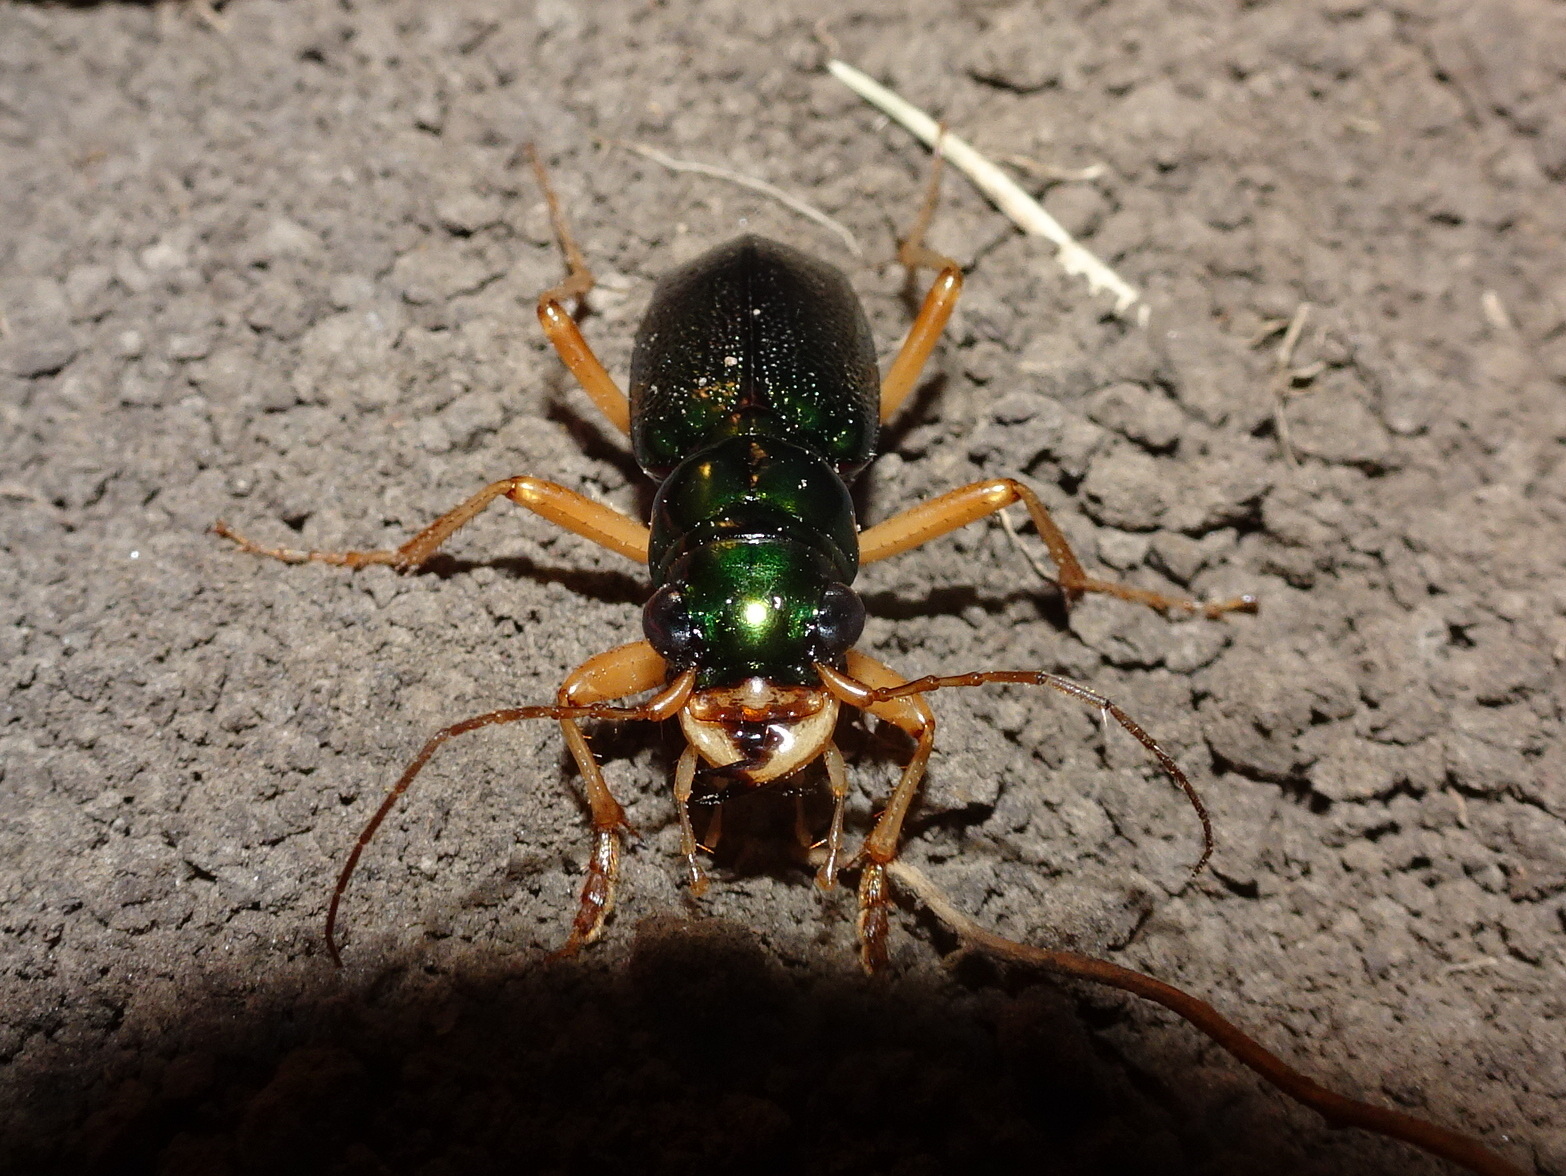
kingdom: Animalia
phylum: Arthropoda
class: Insecta
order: Coleoptera
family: Carabidae
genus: Tetracha
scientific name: Tetracha virginica
